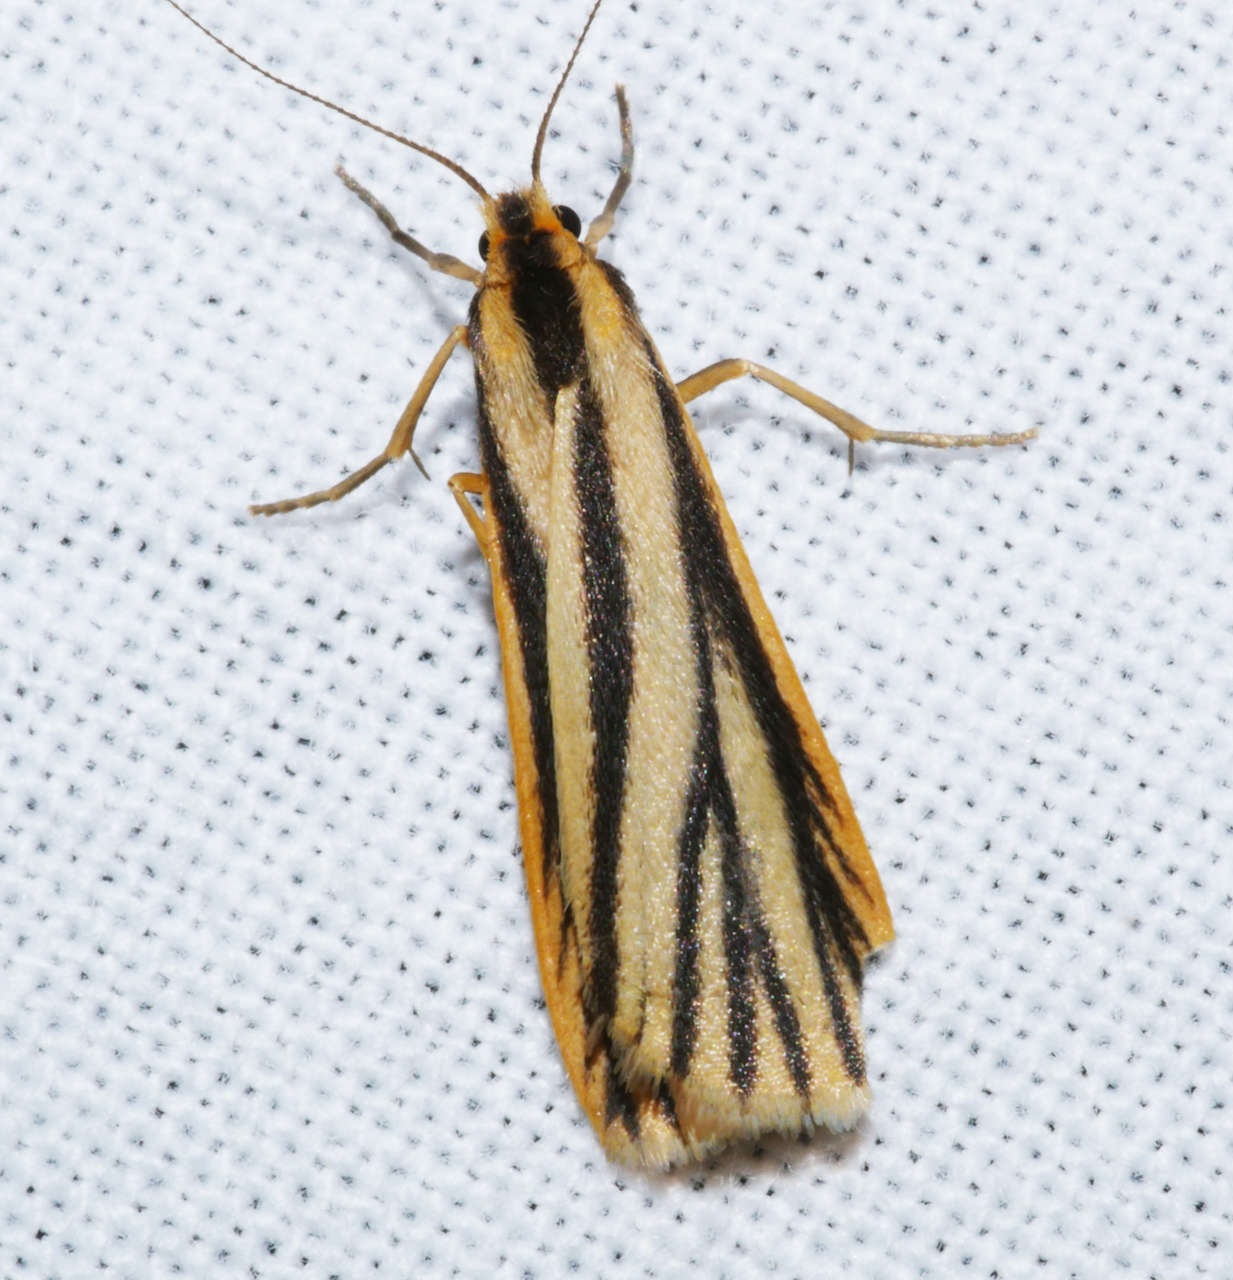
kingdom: Animalia
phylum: Arthropoda
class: Insecta
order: Lepidoptera
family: Erebidae
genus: Phaeophlebosia
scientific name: Phaeophlebosia furcifera
